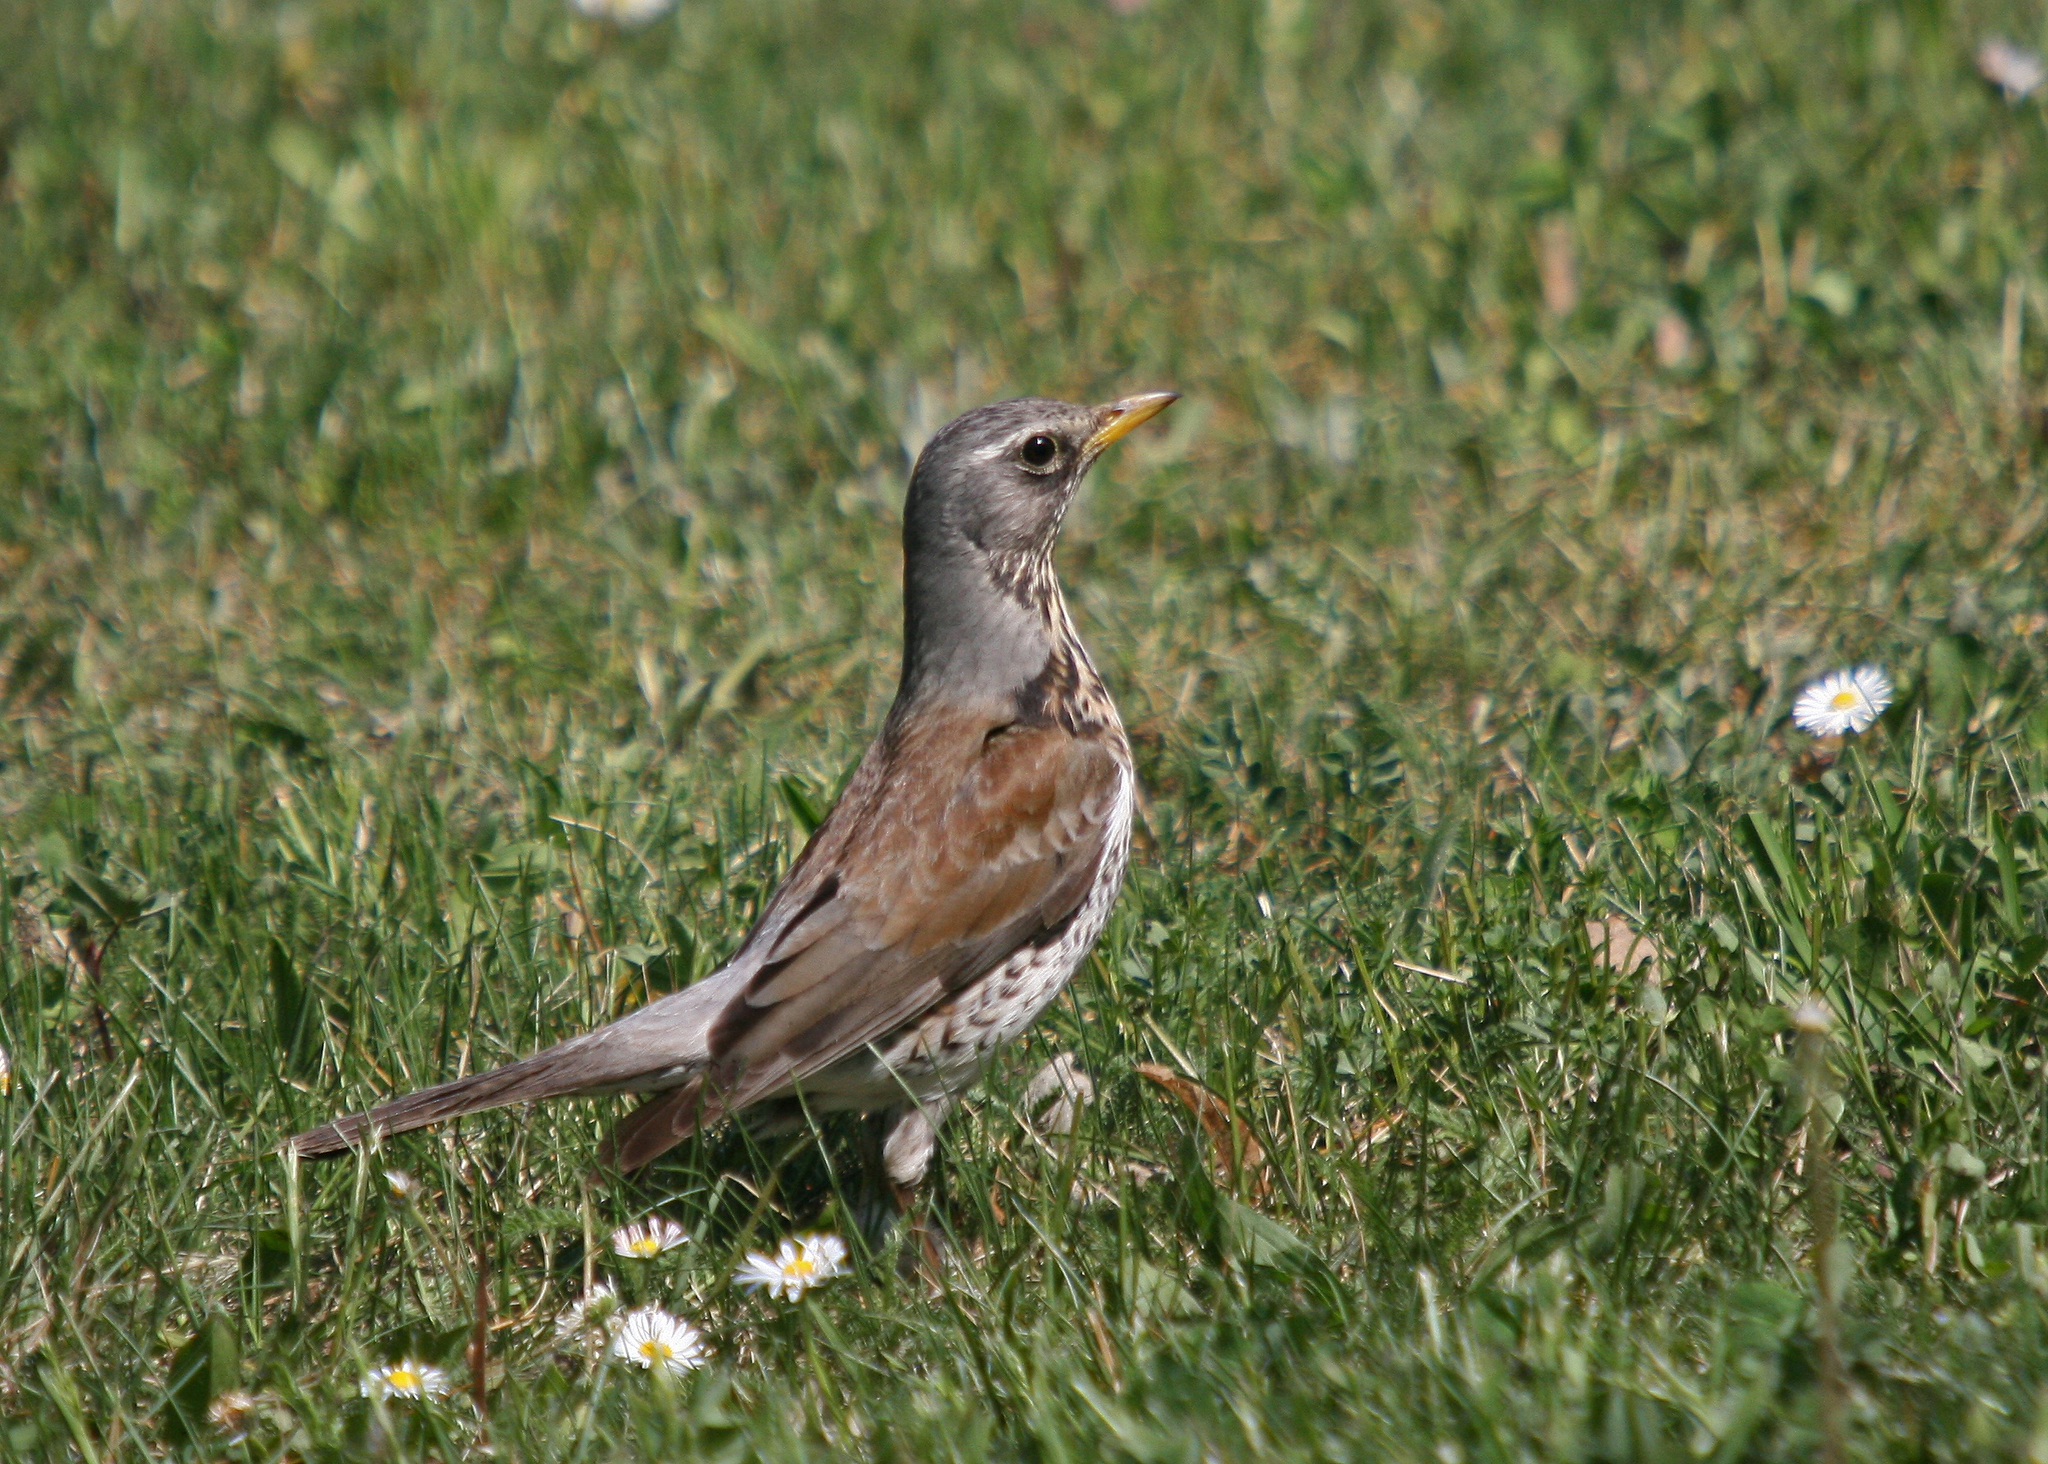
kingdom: Animalia
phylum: Chordata
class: Aves
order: Passeriformes
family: Turdidae
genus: Turdus
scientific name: Turdus pilaris
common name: Fieldfare
